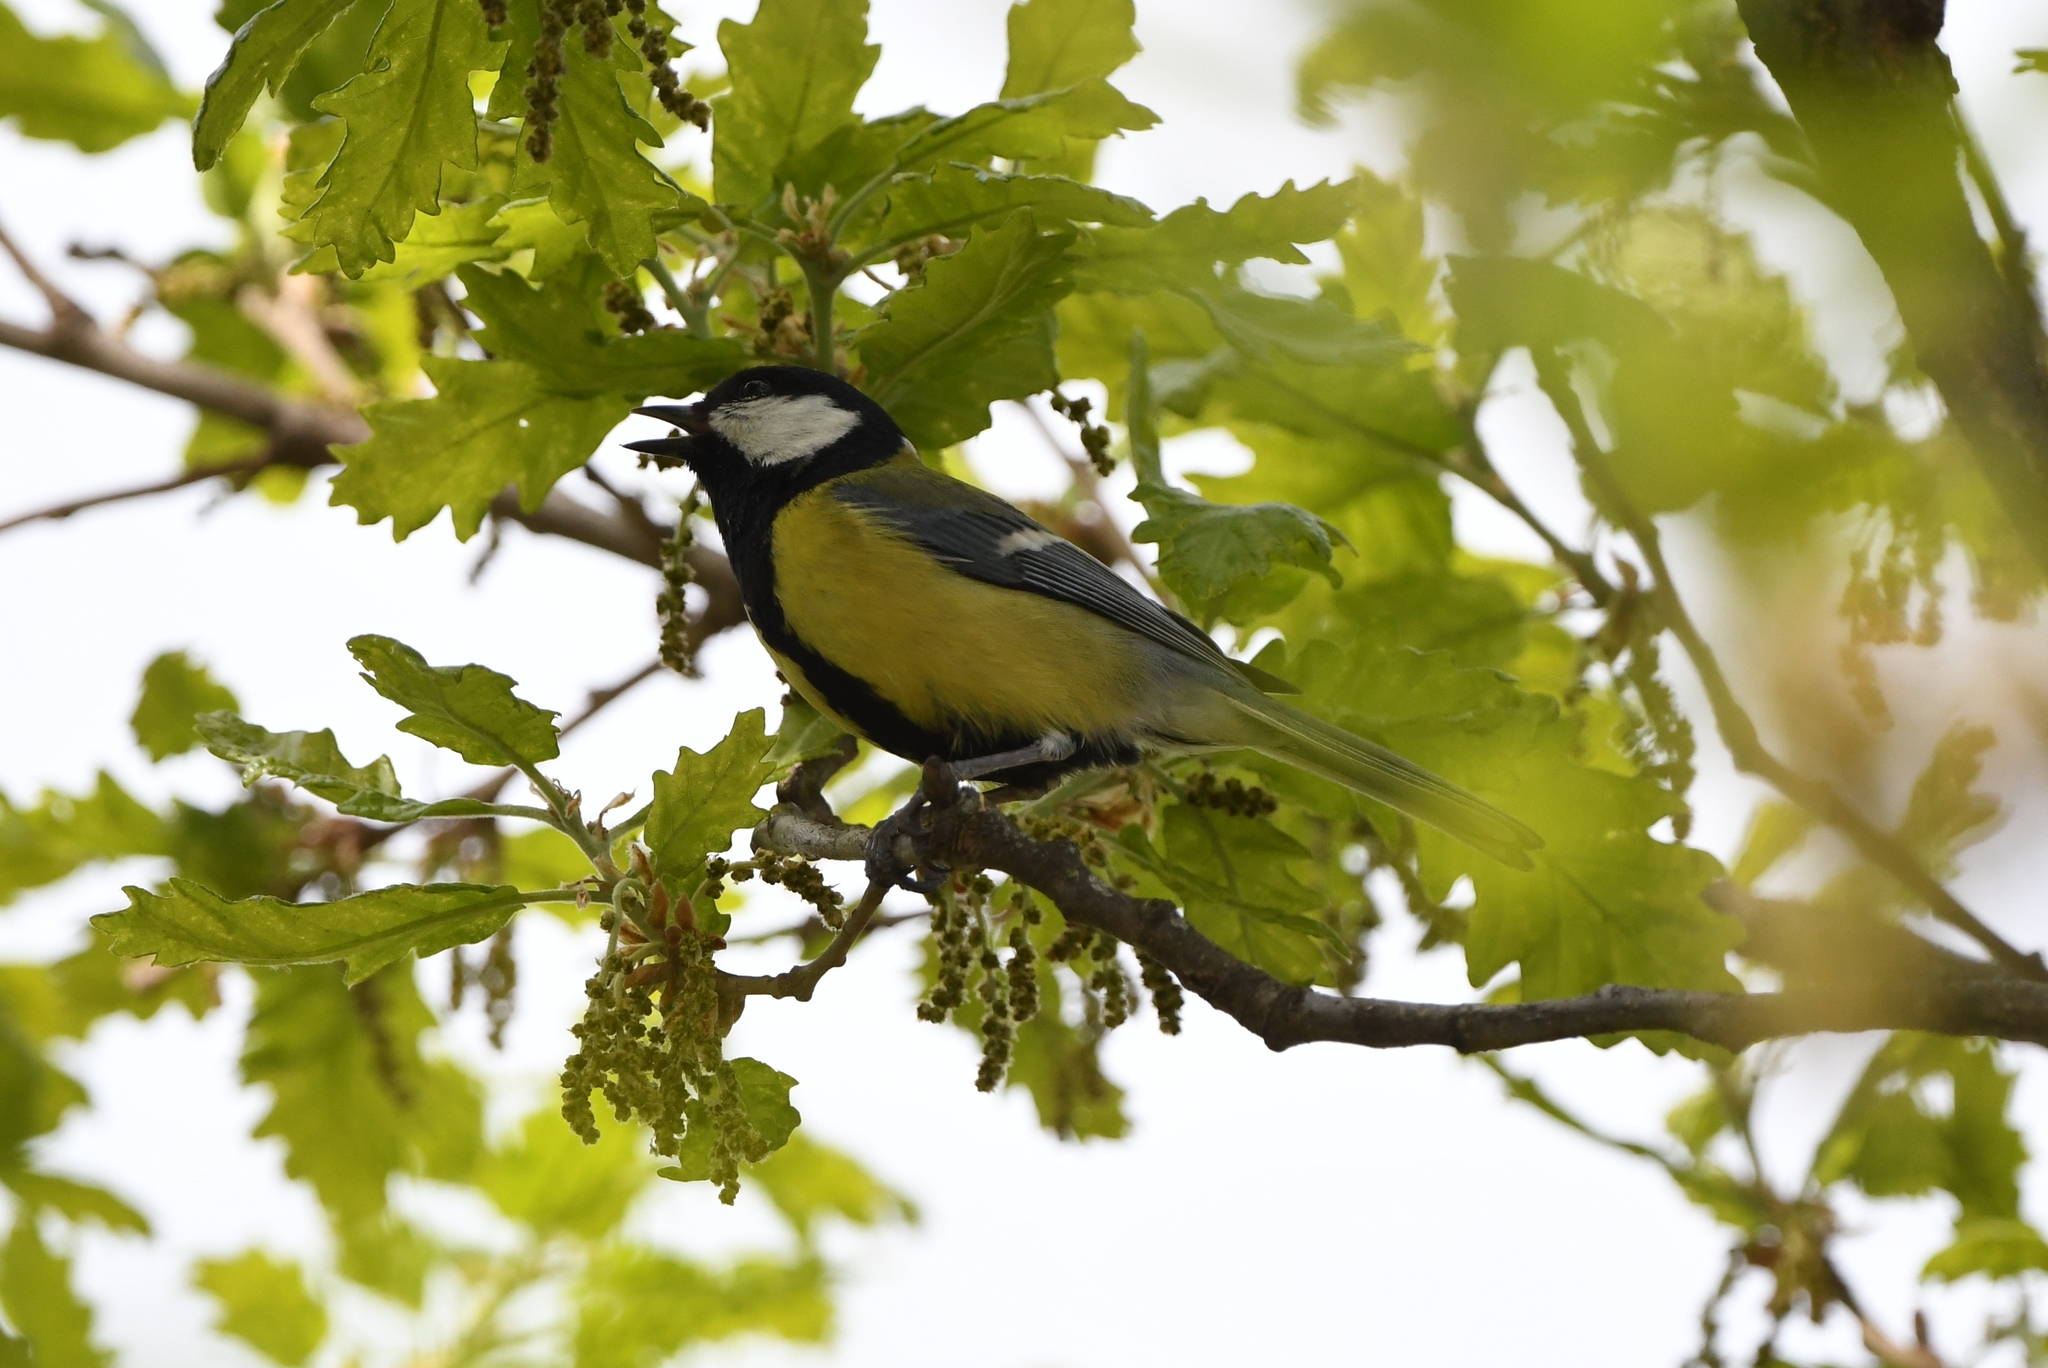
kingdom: Animalia
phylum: Chordata
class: Aves
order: Passeriformes
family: Paridae
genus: Parus
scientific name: Parus major
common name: Great tit
